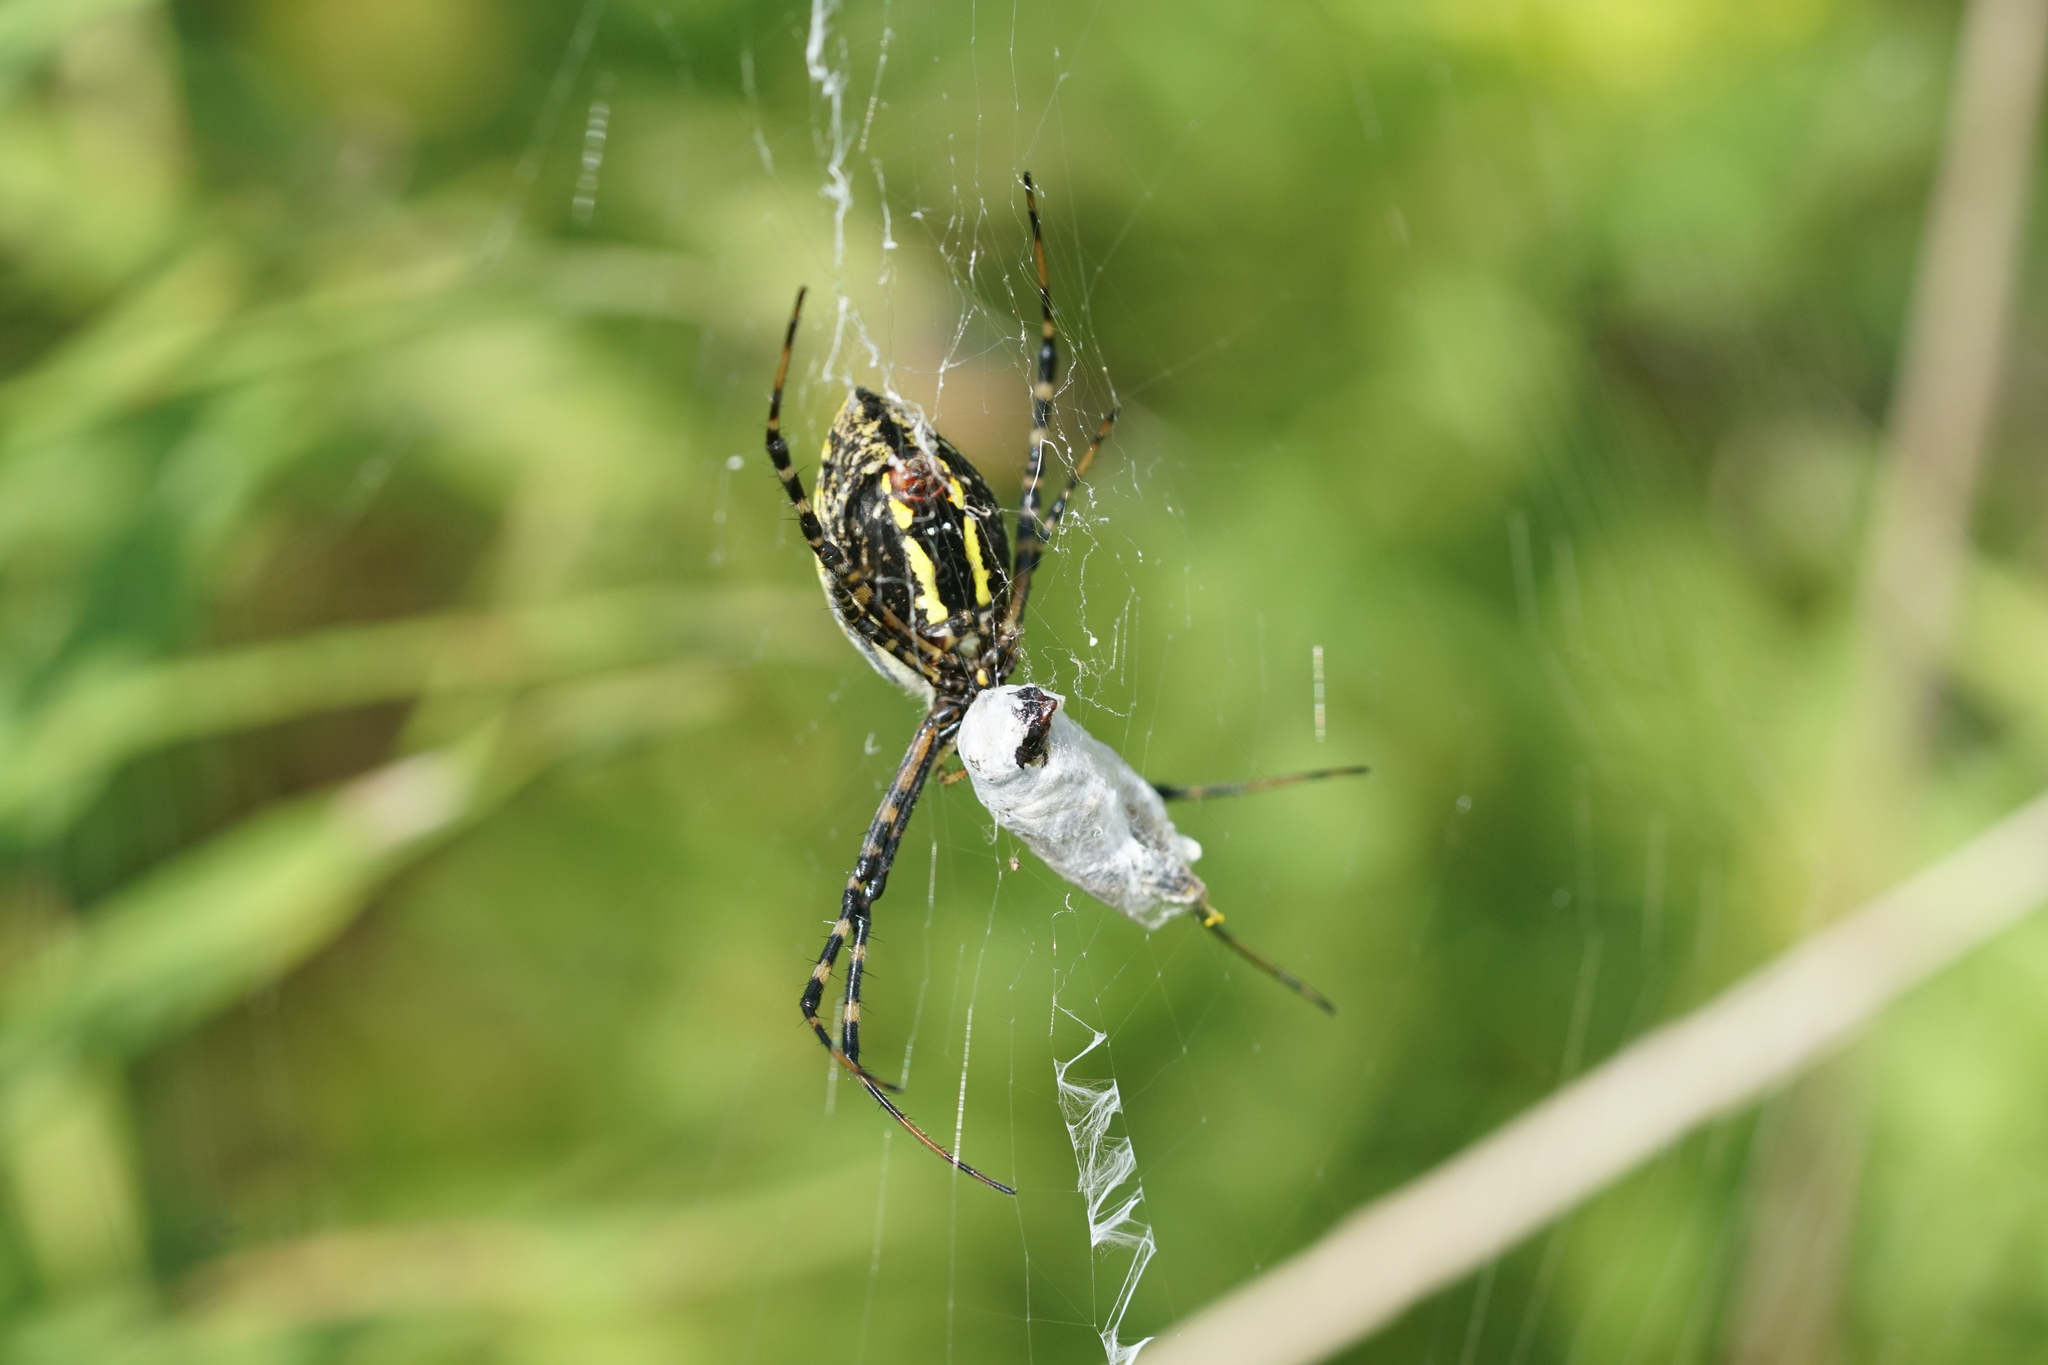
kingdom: Animalia
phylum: Arthropoda
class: Arachnida
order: Araneae
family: Araneidae
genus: Argiope
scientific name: Argiope trifasciata
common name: Banded garden spider
